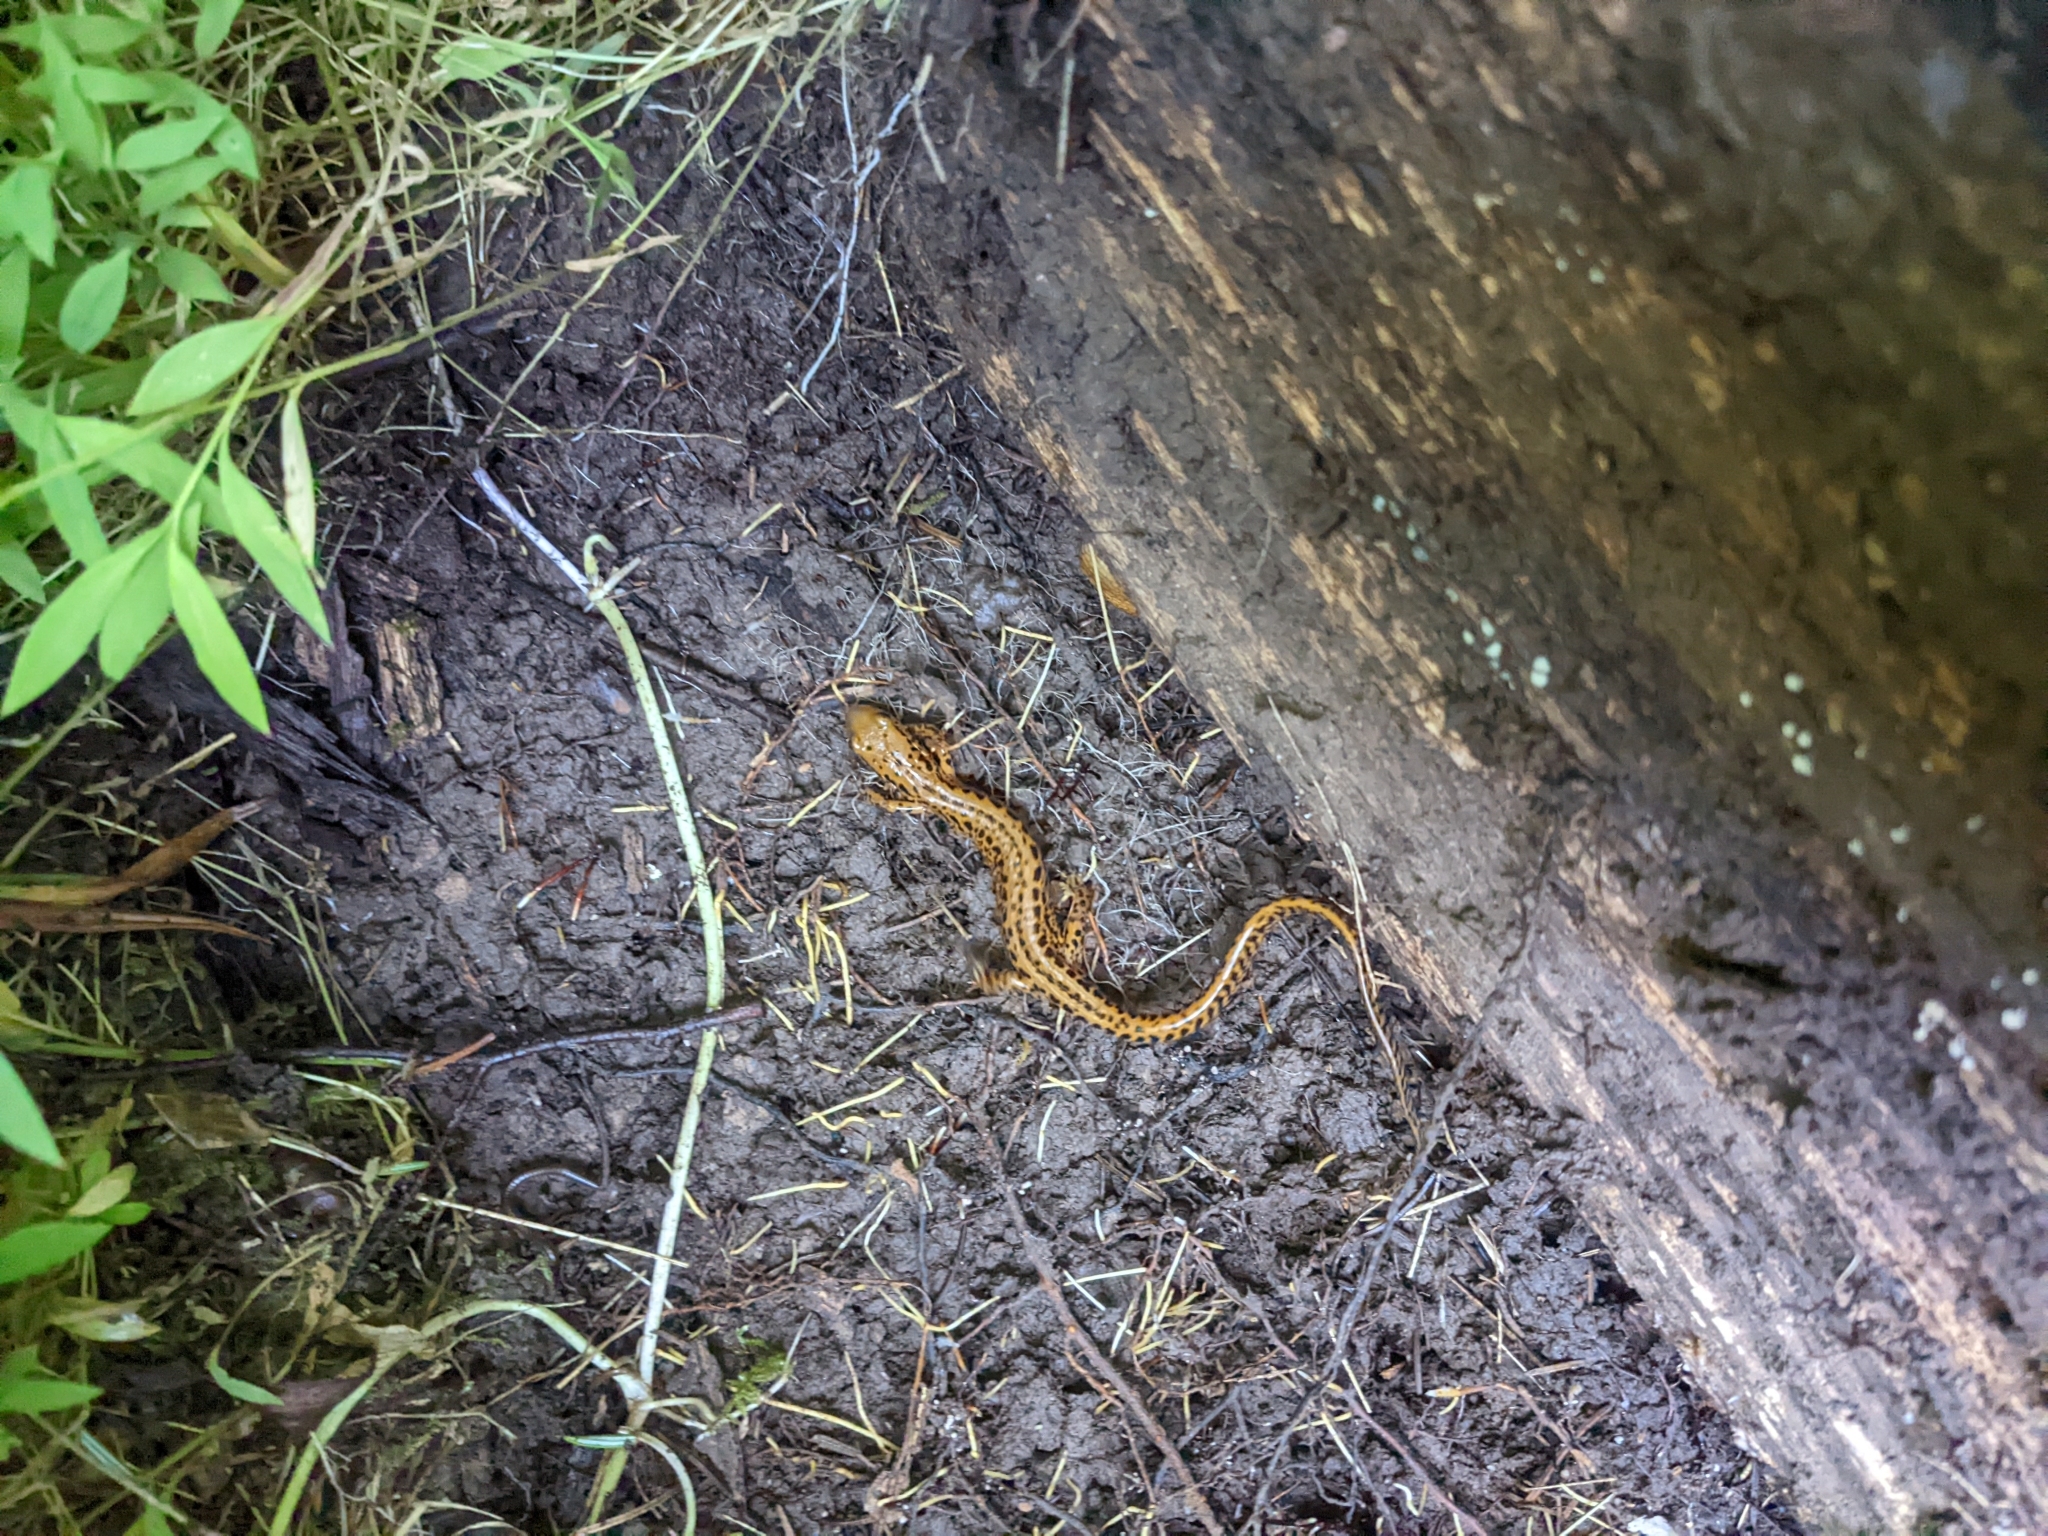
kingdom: Animalia
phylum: Chordata
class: Amphibia
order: Caudata
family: Plethodontidae
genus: Eurycea
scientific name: Eurycea longicauda
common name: Long-tailed salamander
